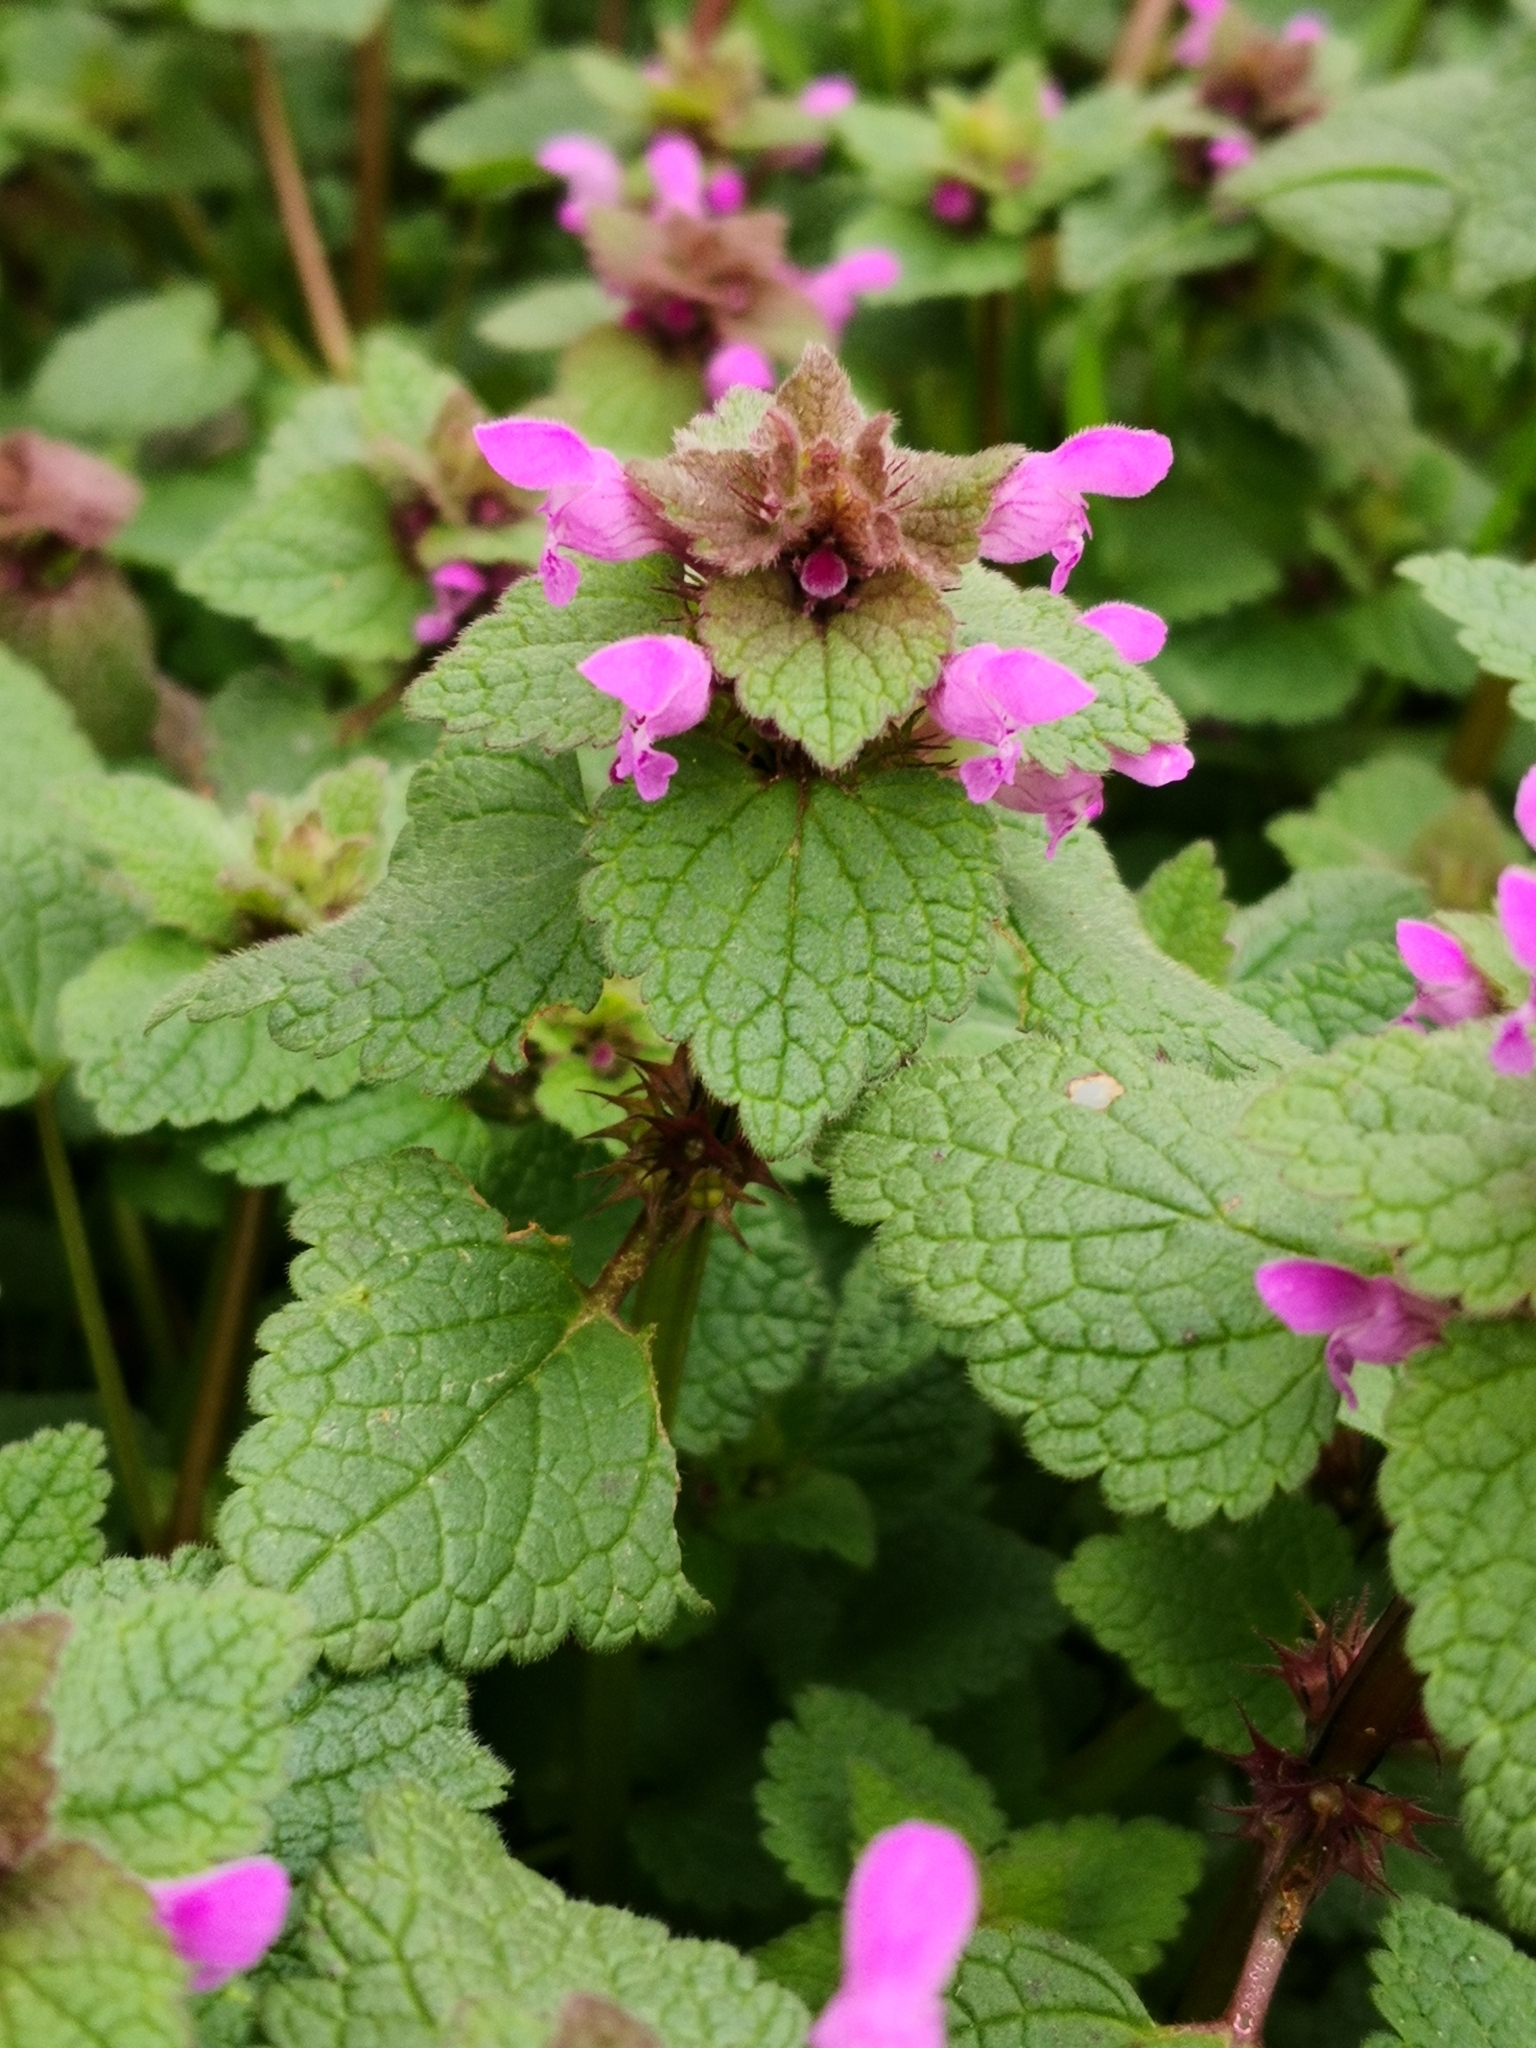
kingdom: Plantae
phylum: Tracheophyta
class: Magnoliopsida
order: Lamiales
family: Lamiaceae
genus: Lamium
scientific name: Lamium purpureum
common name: Red dead-nettle
